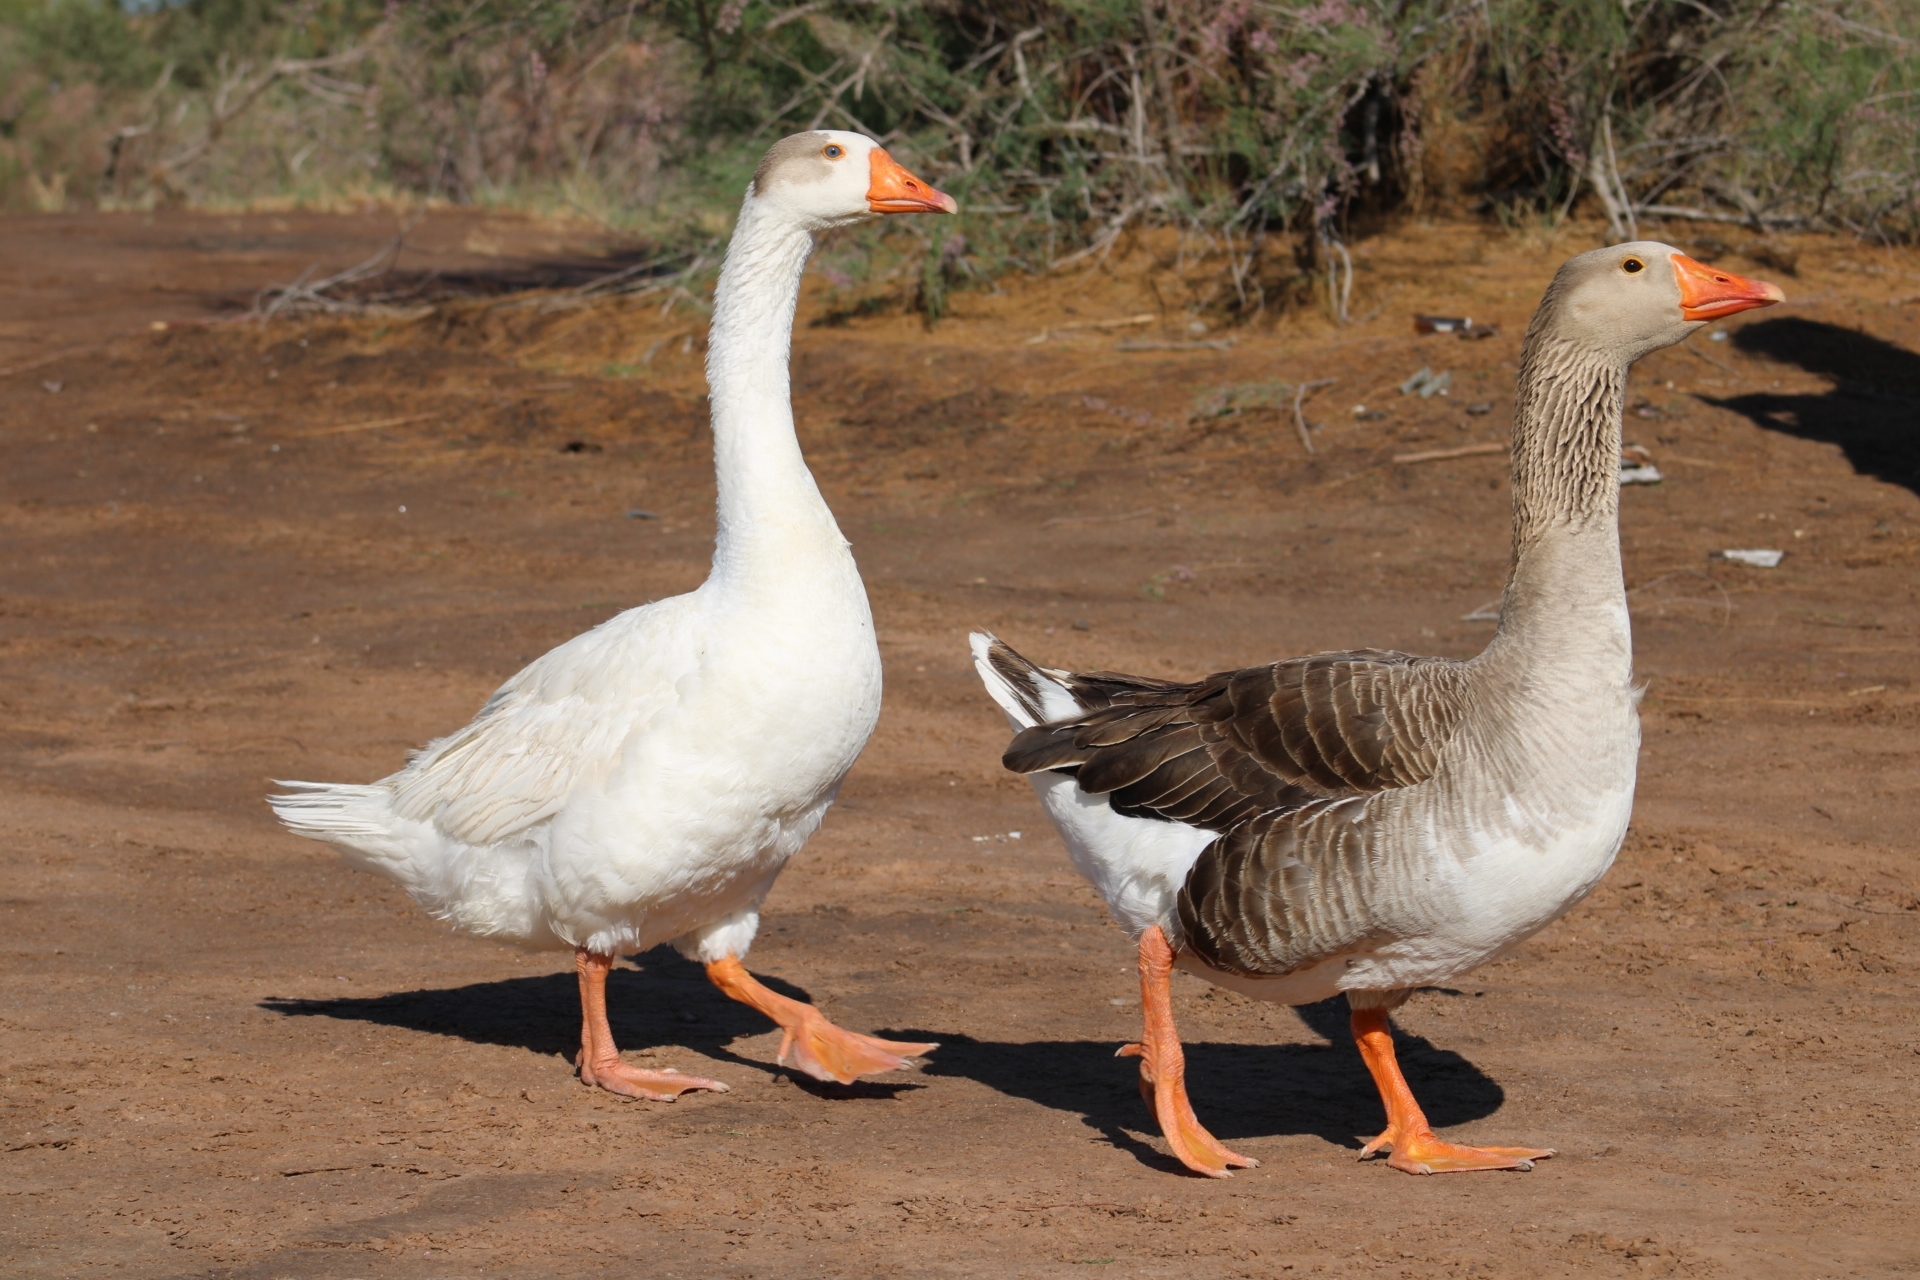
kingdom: Animalia
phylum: Chordata
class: Aves
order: Anseriformes
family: Anatidae
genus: Anser
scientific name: Anser anser
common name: Greylag goose
